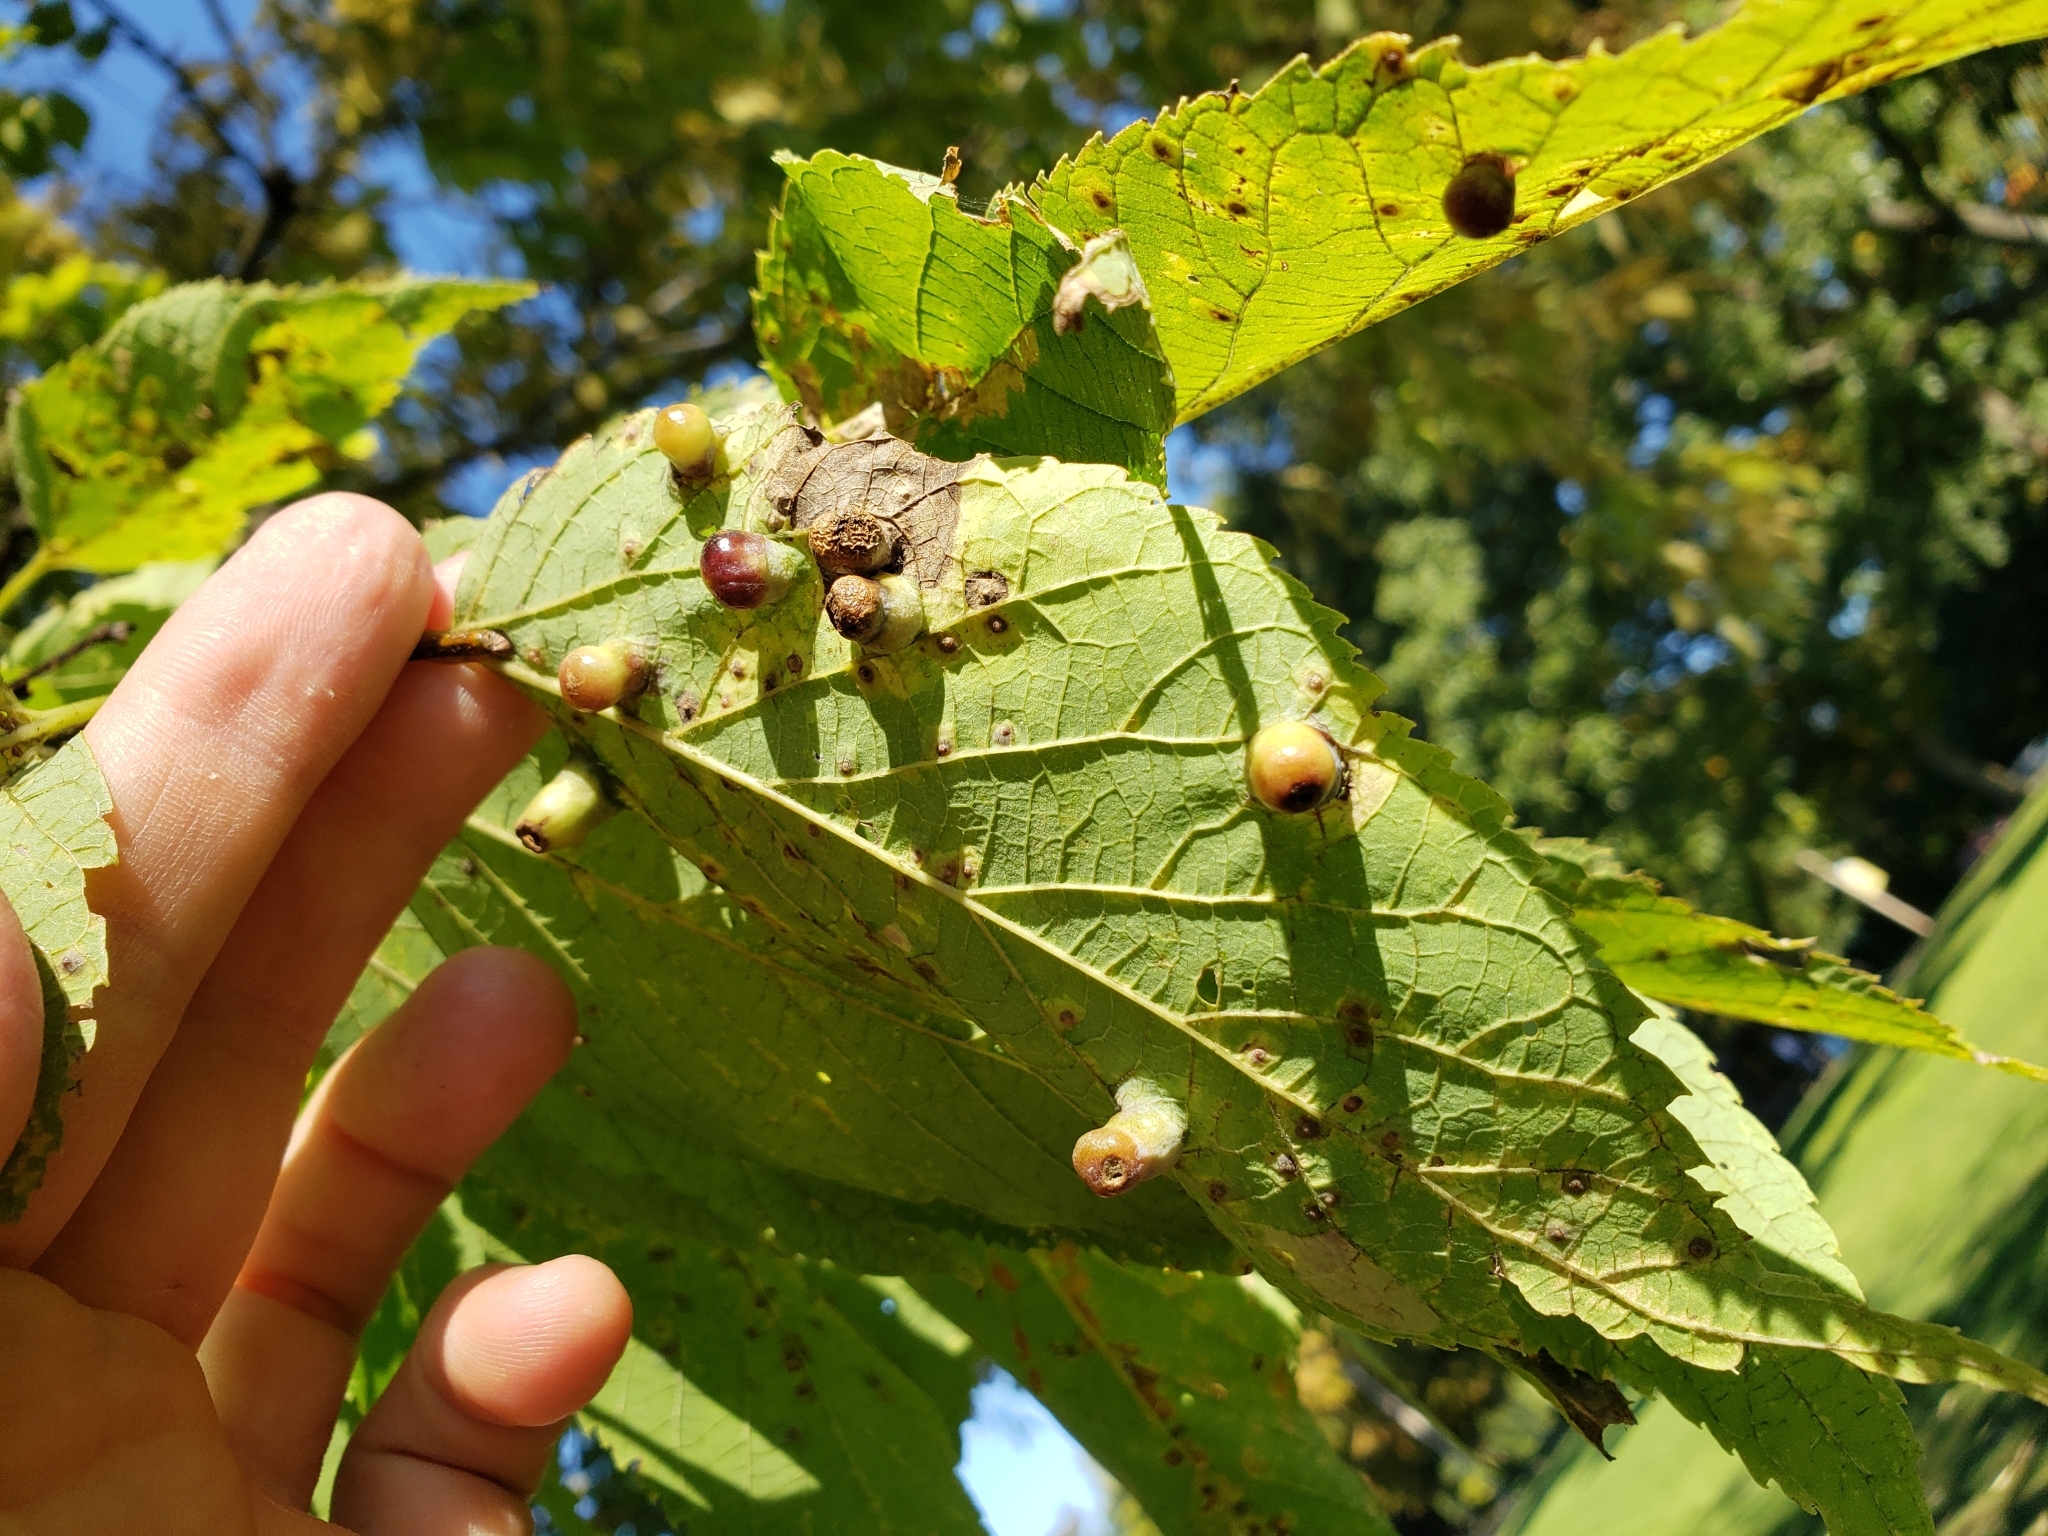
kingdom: Animalia
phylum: Arthropoda
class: Insecta
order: Hemiptera
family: Aphalaridae
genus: Pachypsylla
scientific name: Pachypsylla celtidismamma
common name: Hackberry nipplegall psyllid
